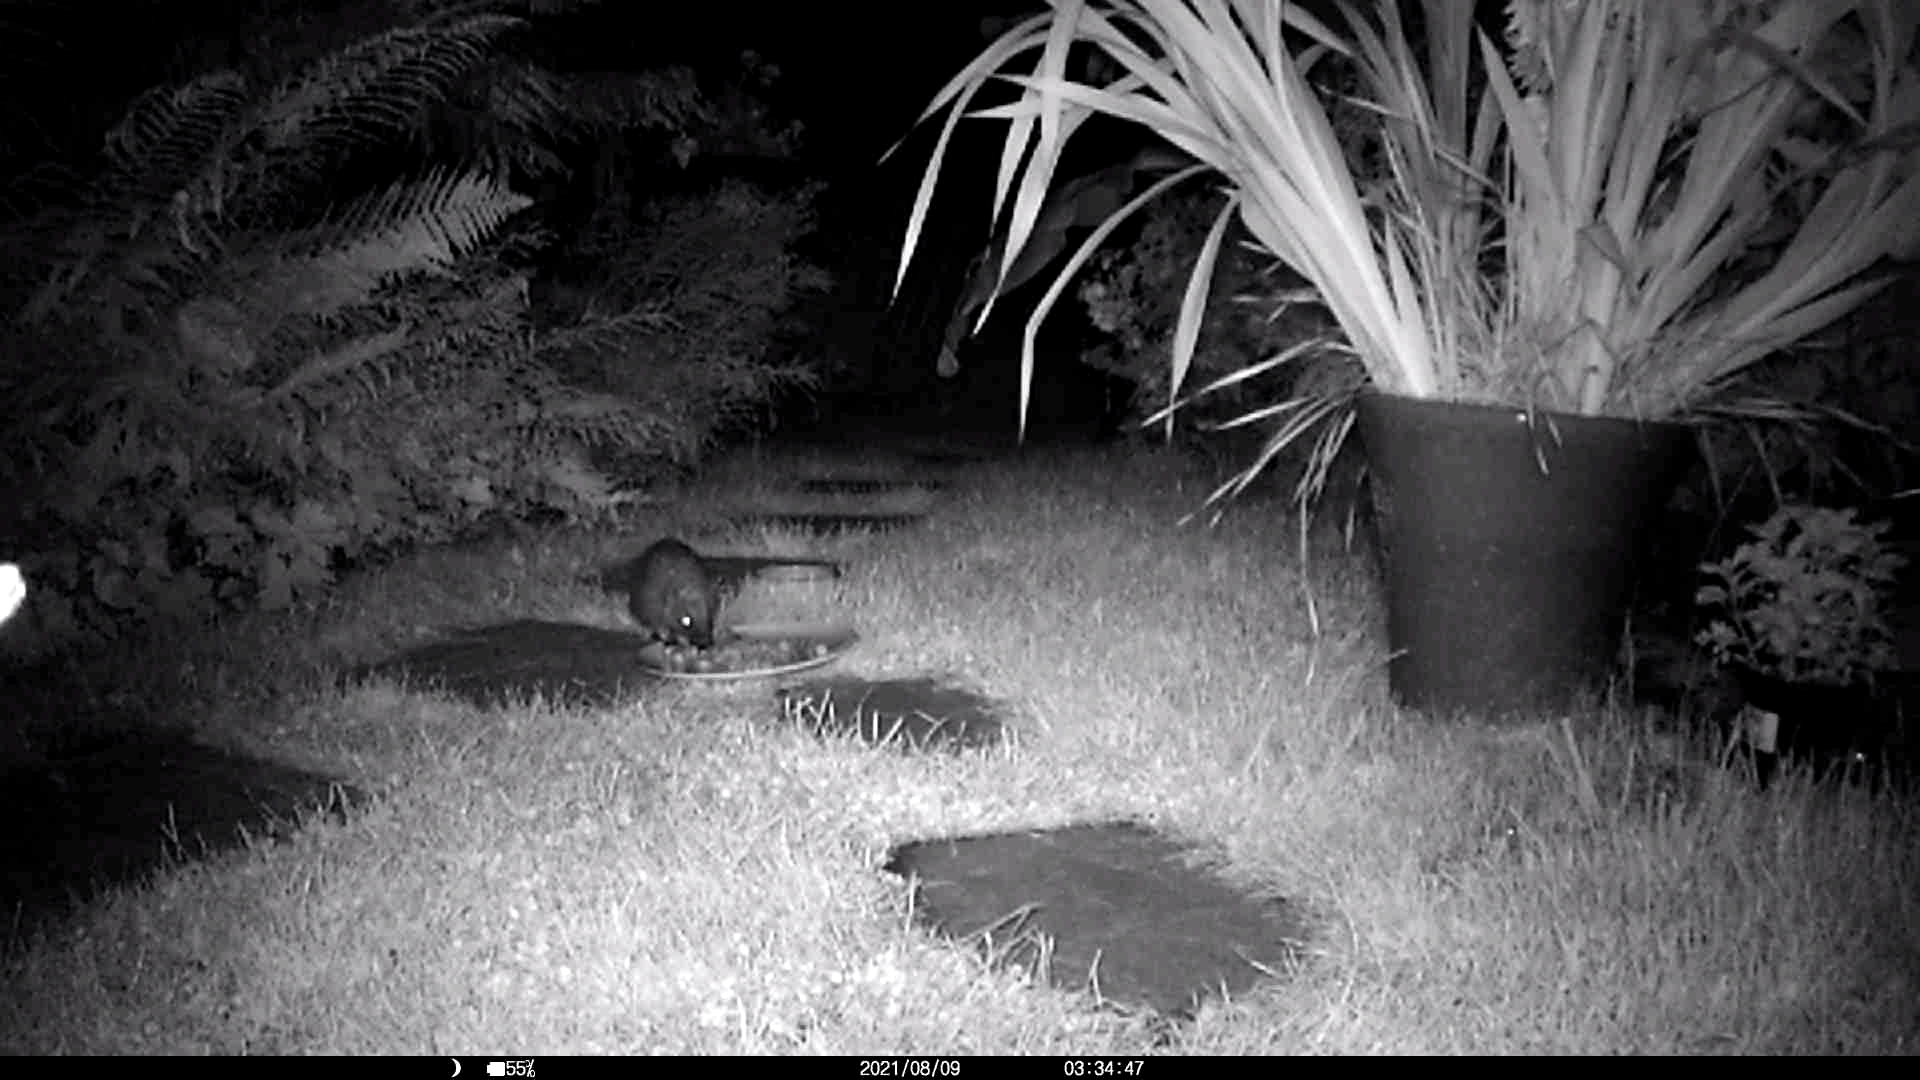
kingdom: Animalia
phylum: Chordata
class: Mammalia
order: Erinaceomorpha
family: Erinaceidae
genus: Erinaceus
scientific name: Erinaceus europaeus
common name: West european hedgehog
